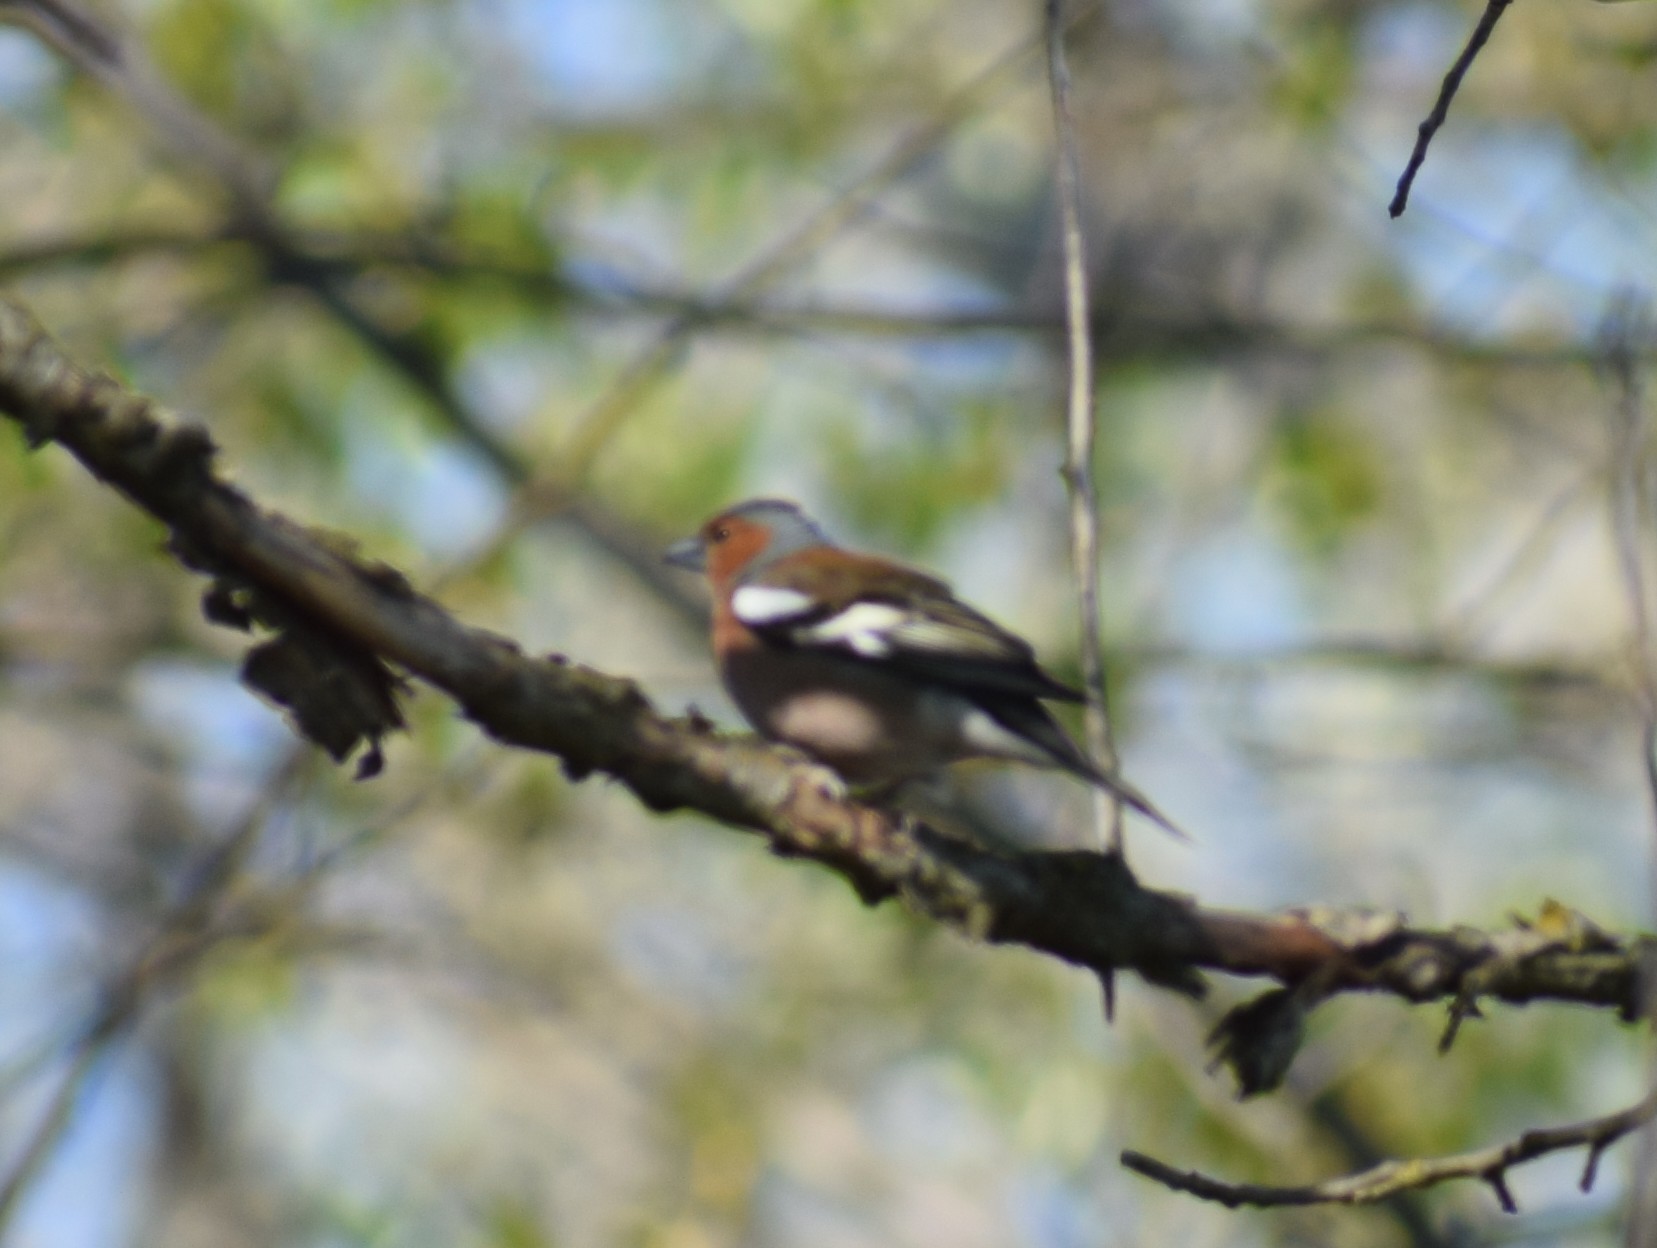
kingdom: Animalia
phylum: Chordata
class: Aves
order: Passeriformes
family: Fringillidae
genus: Fringilla
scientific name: Fringilla coelebs
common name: Common chaffinch
